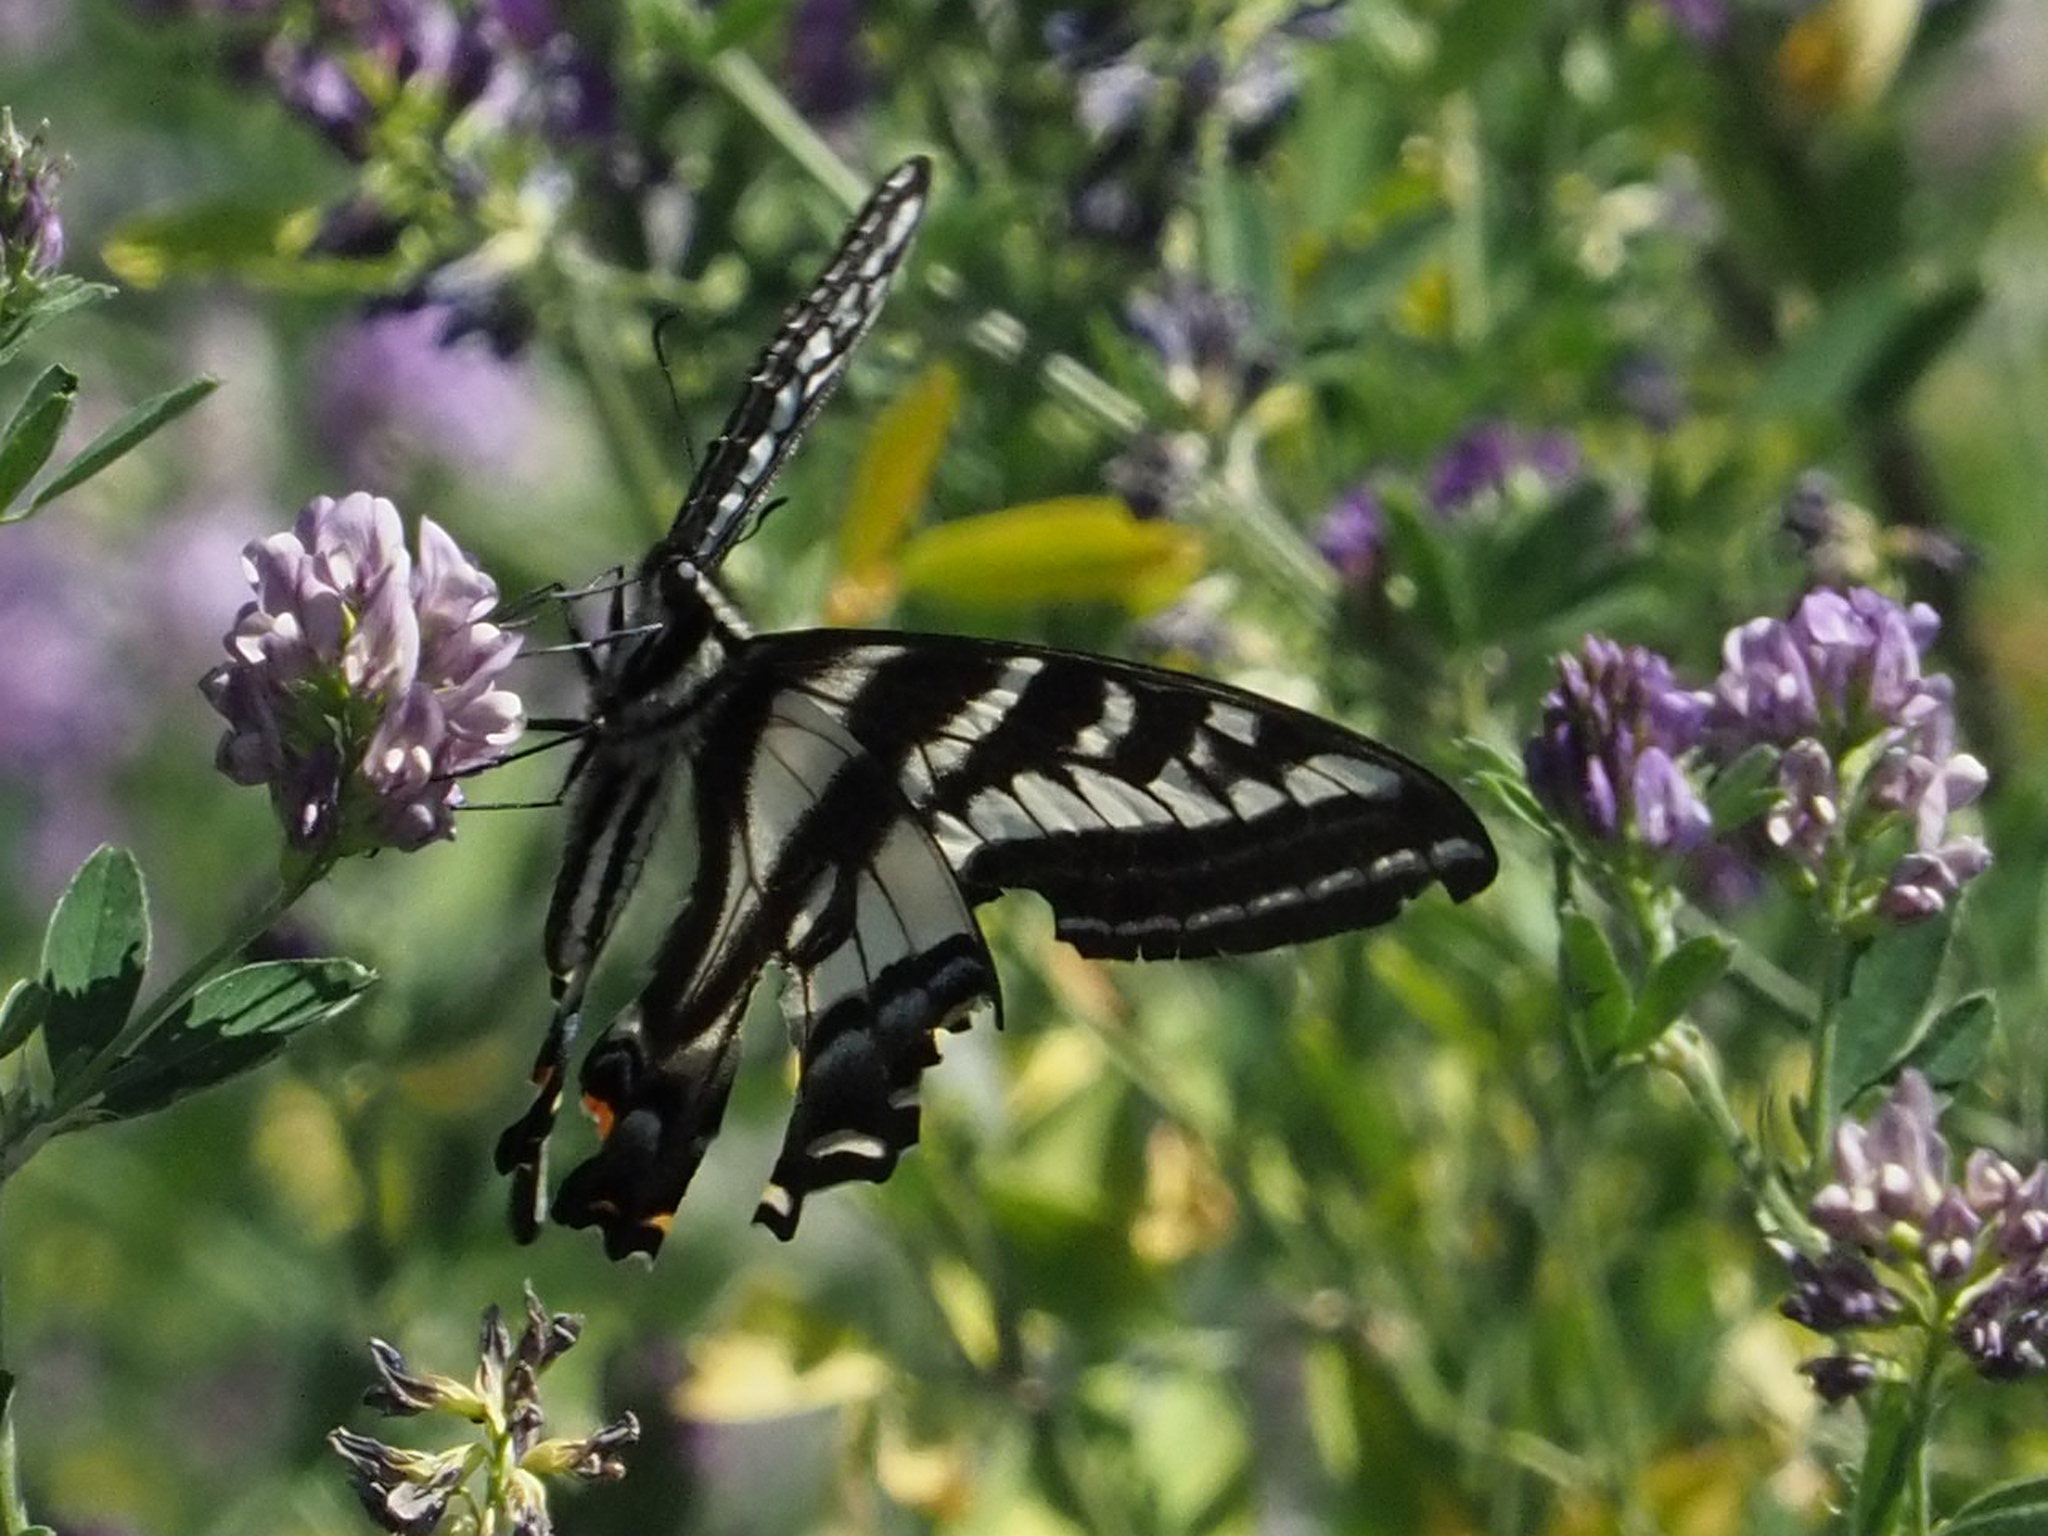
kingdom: Animalia
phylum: Arthropoda
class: Insecta
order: Lepidoptera
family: Papilionidae
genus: Papilio
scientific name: Papilio eurymedon
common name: Pale tiger swallowtail
